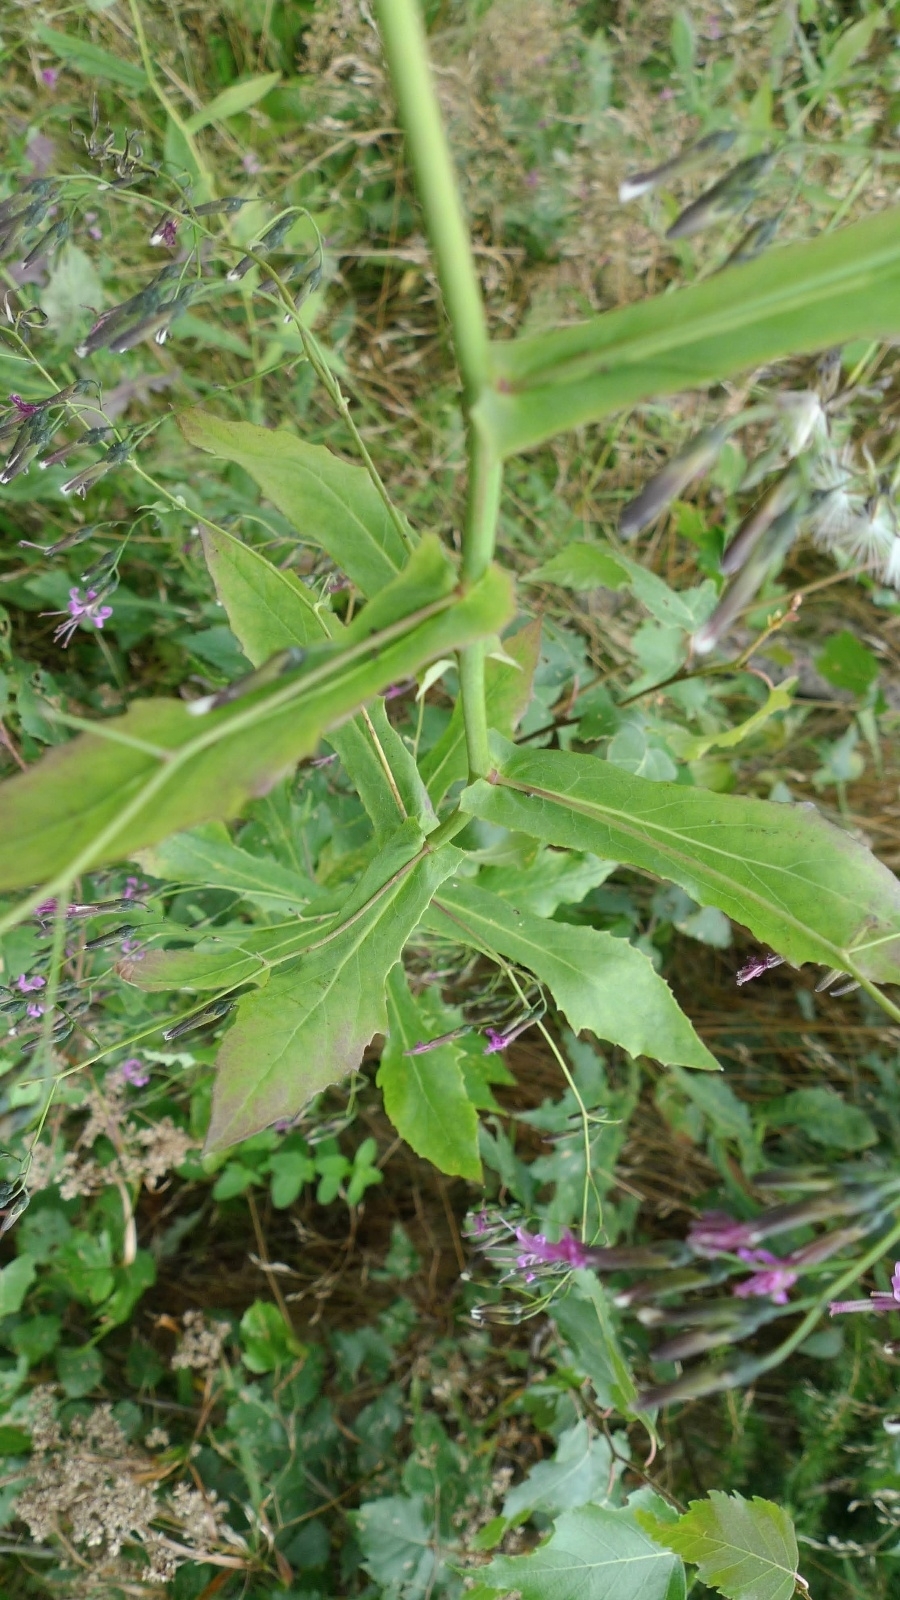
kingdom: Plantae
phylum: Tracheophyta
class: Magnoliopsida
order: Asterales
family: Asteraceae
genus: Prenanthes
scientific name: Prenanthes purpurea
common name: Purple lettuce
